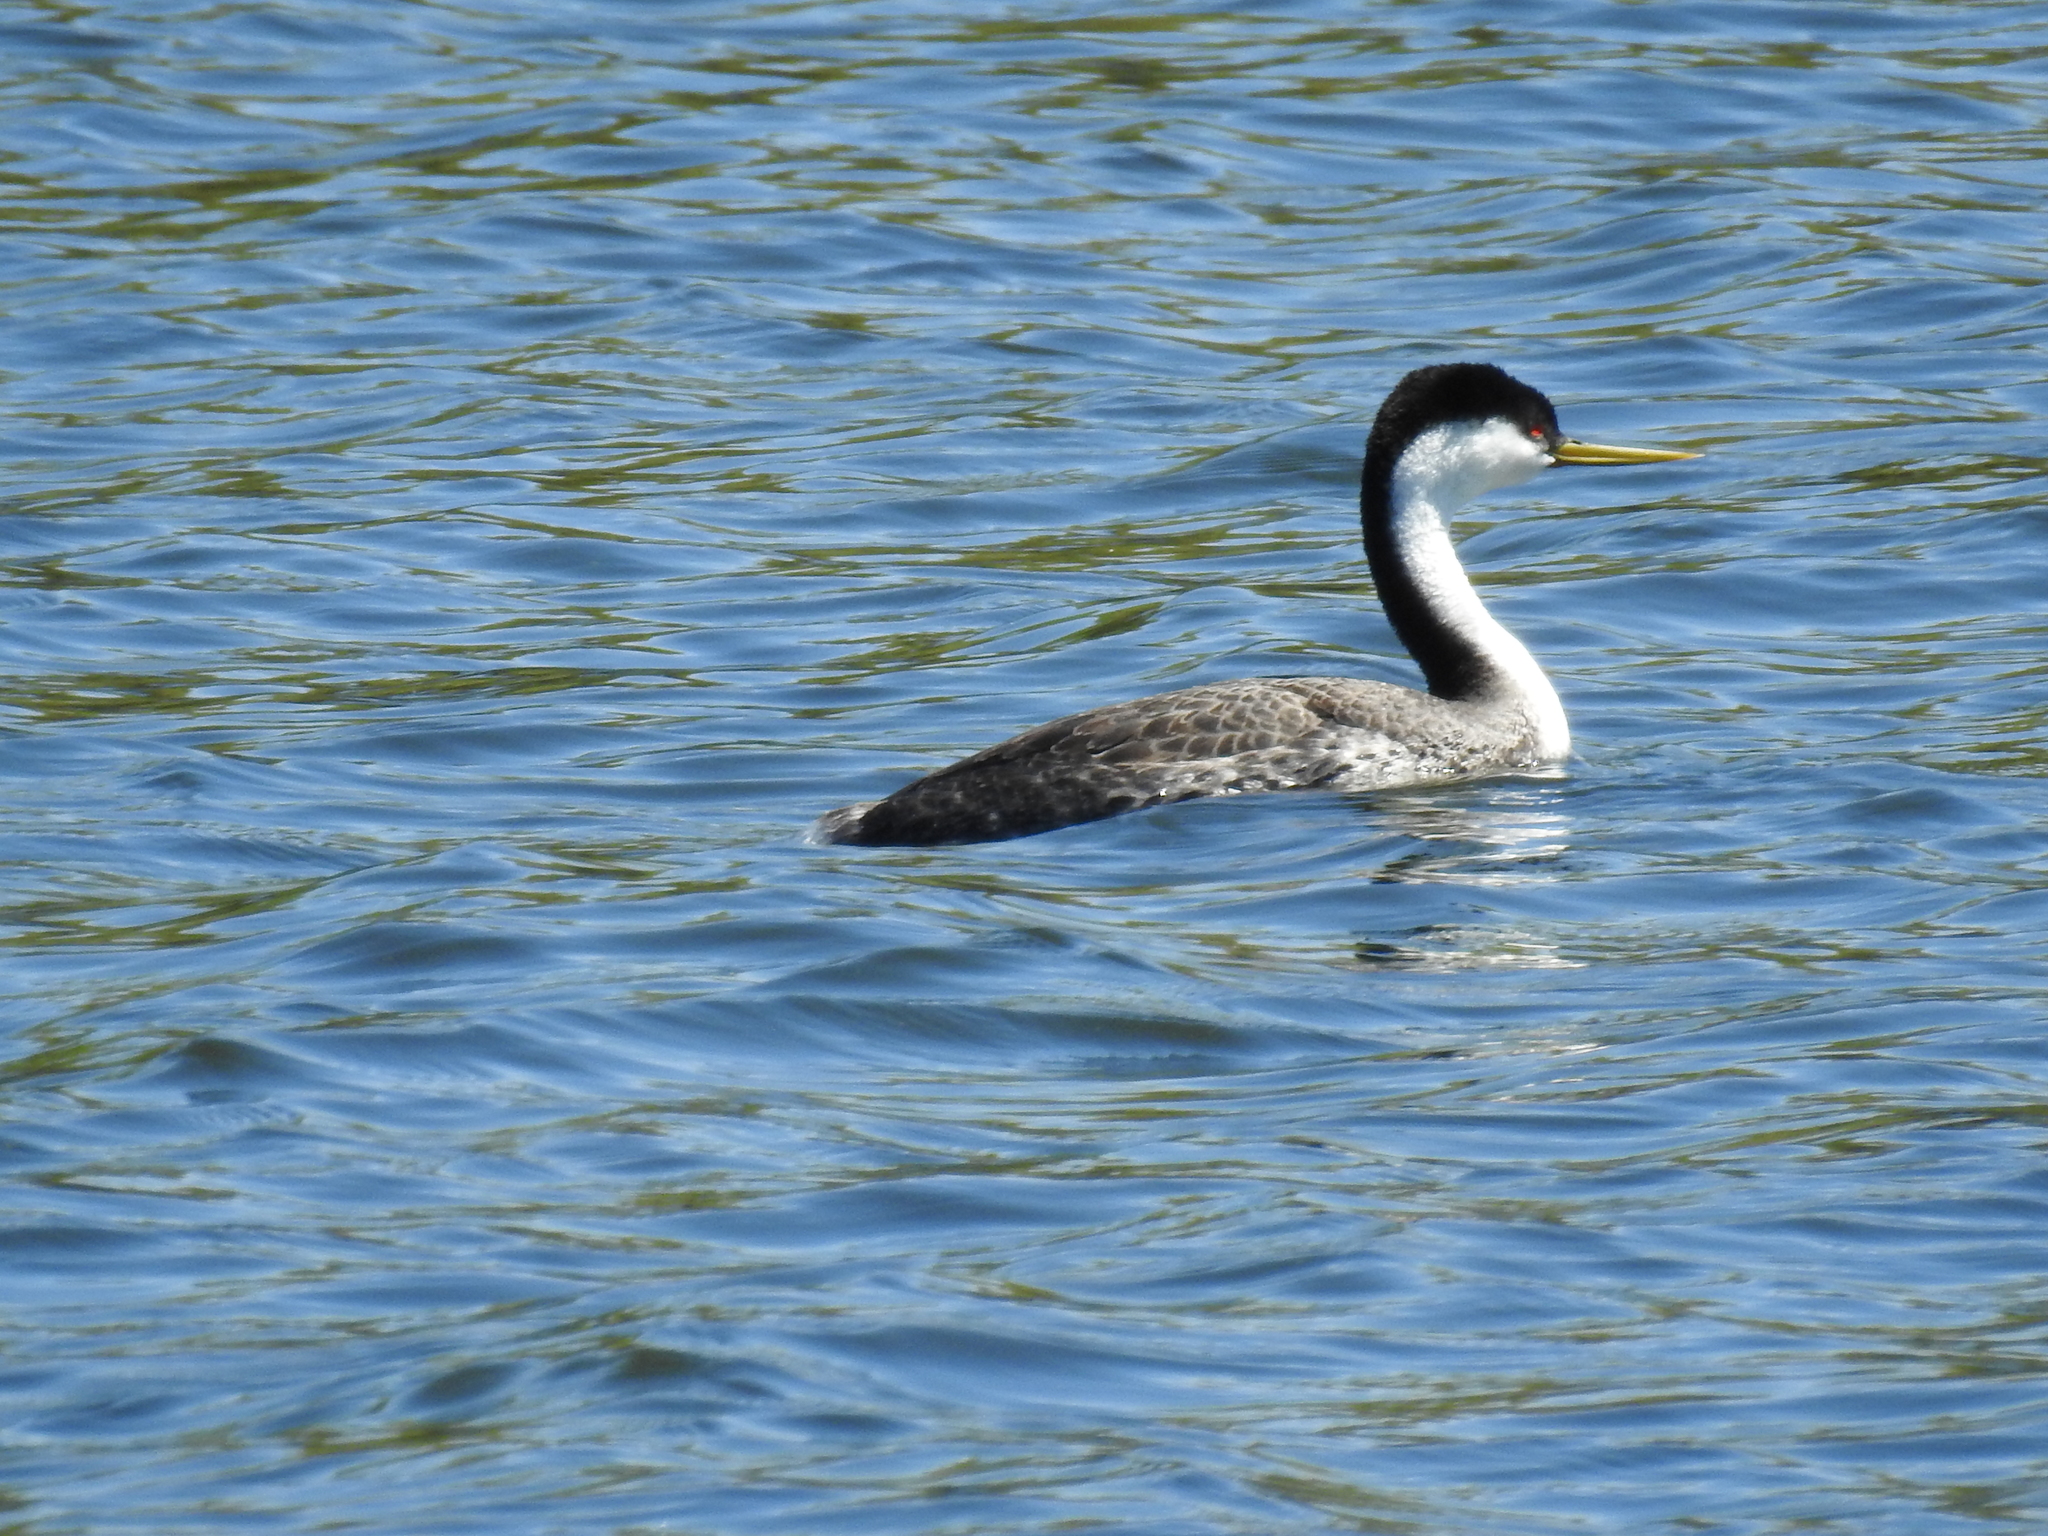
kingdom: Animalia
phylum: Chordata
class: Aves
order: Podicipediformes
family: Podicipedidae
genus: Aechmophorus
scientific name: Aechmophorus occidentalis
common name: Western grebe
